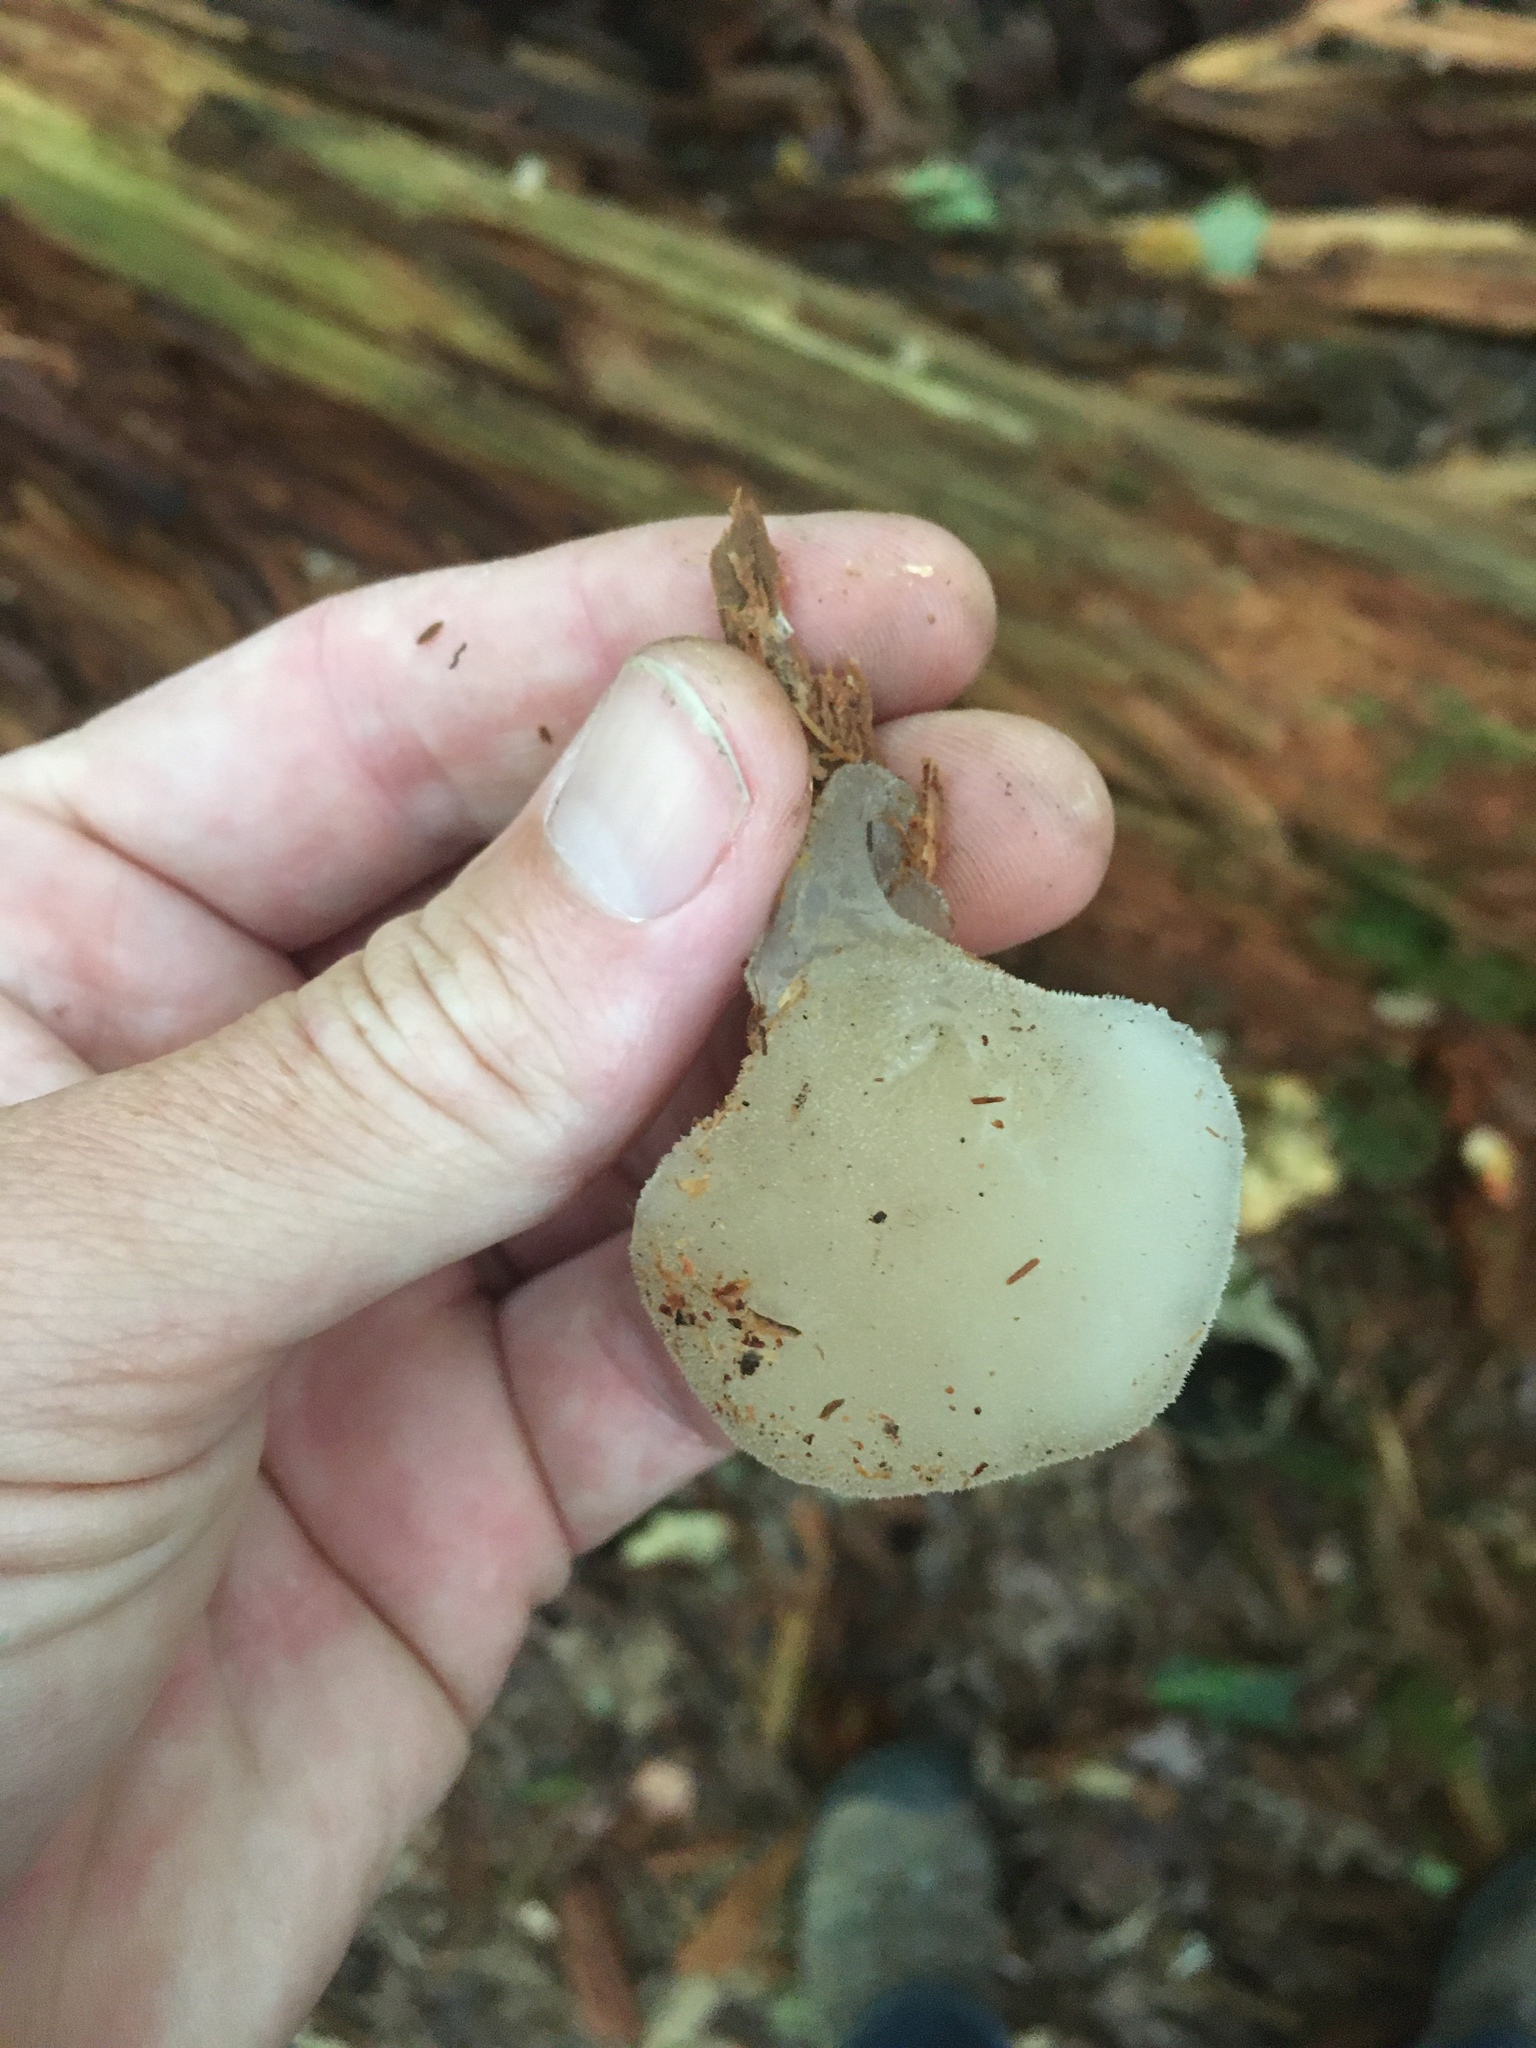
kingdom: Fungi
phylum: Basidiomycota
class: Agaricomycetes
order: Auriculariales
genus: Pseudohydnum
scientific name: Pseudohydnum gelatinosum
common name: Jelly tongue
